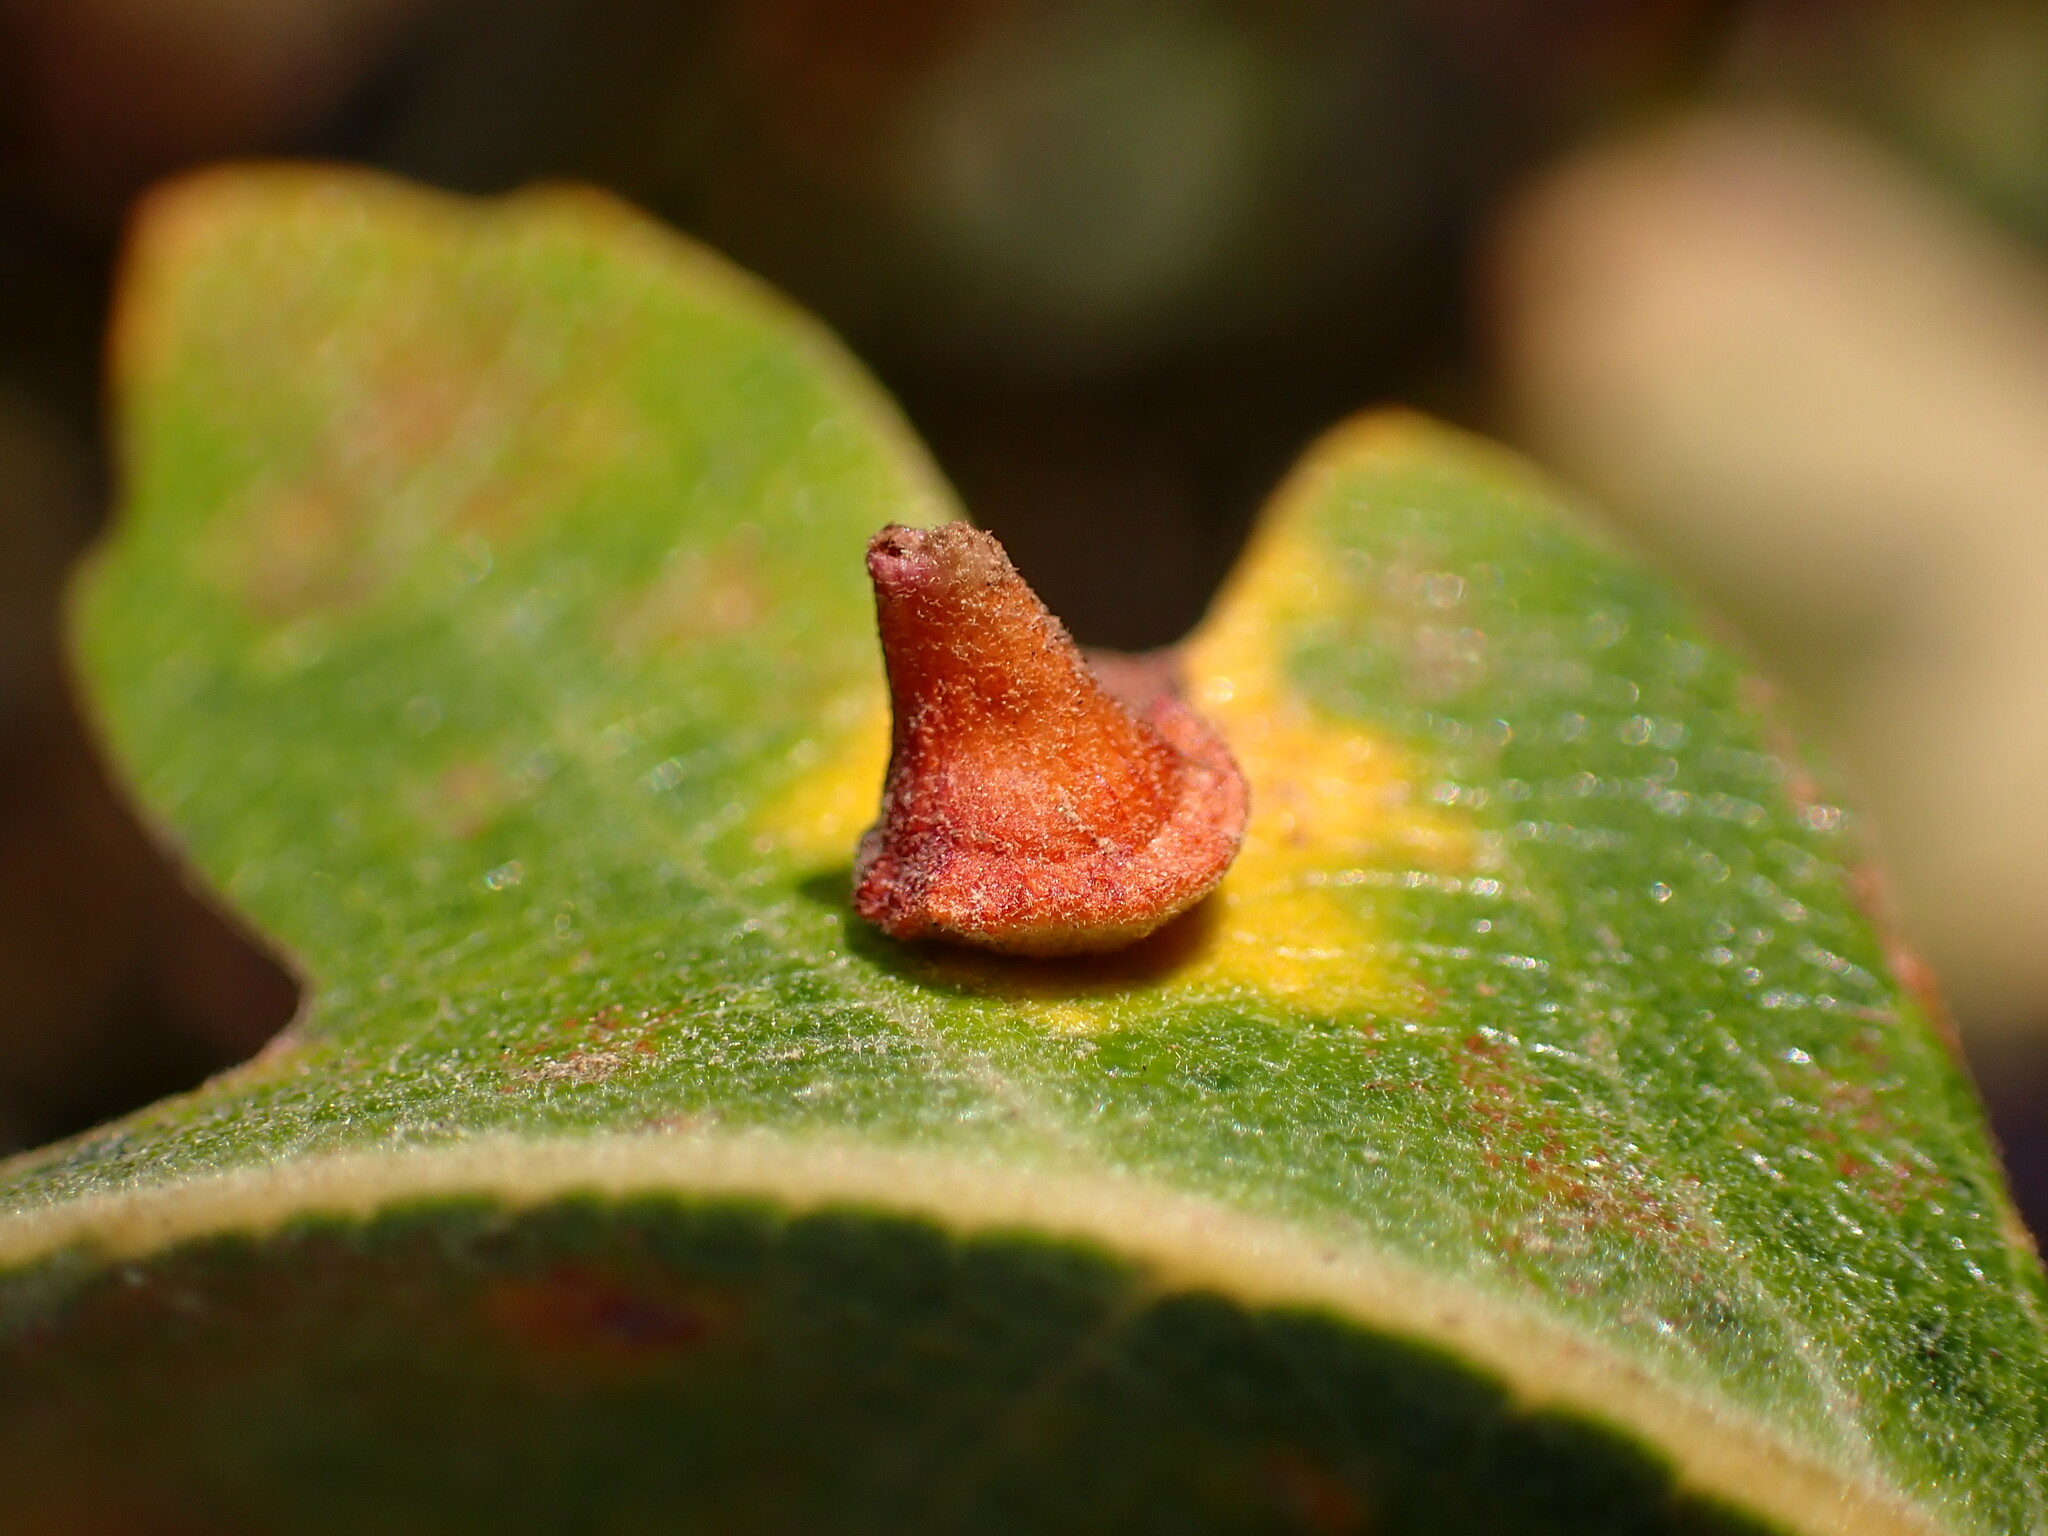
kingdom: Animalia
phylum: Arthropoda
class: Insecta
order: Hymenoptera
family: Cynipidae
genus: Andricus
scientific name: Andricus
